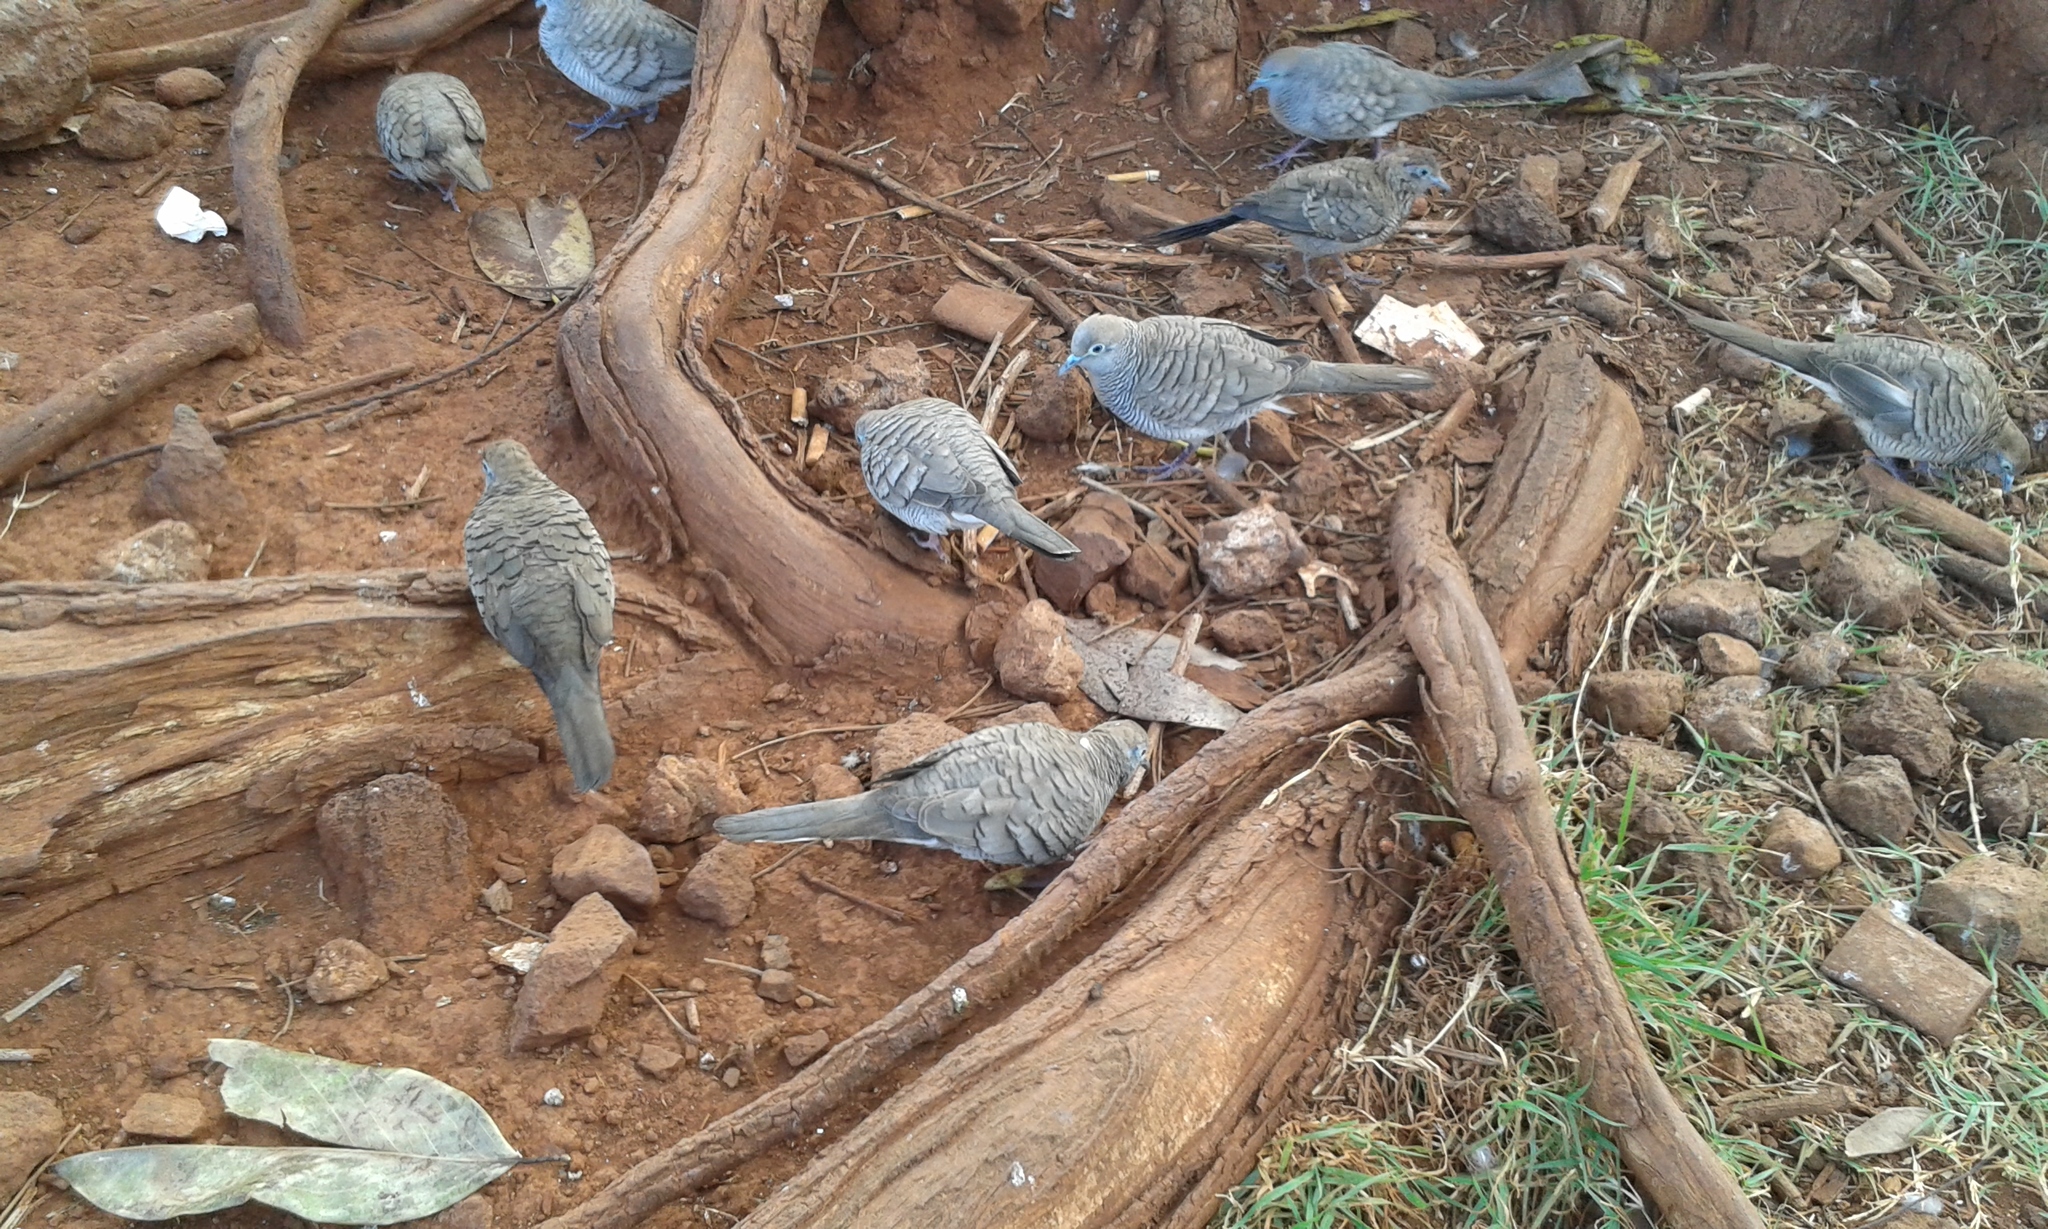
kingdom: Animalia
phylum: Chordata
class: Aves
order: Columbiformes
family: Columbidae
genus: Geopelia
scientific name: Geopelia striata
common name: Zebra dove
